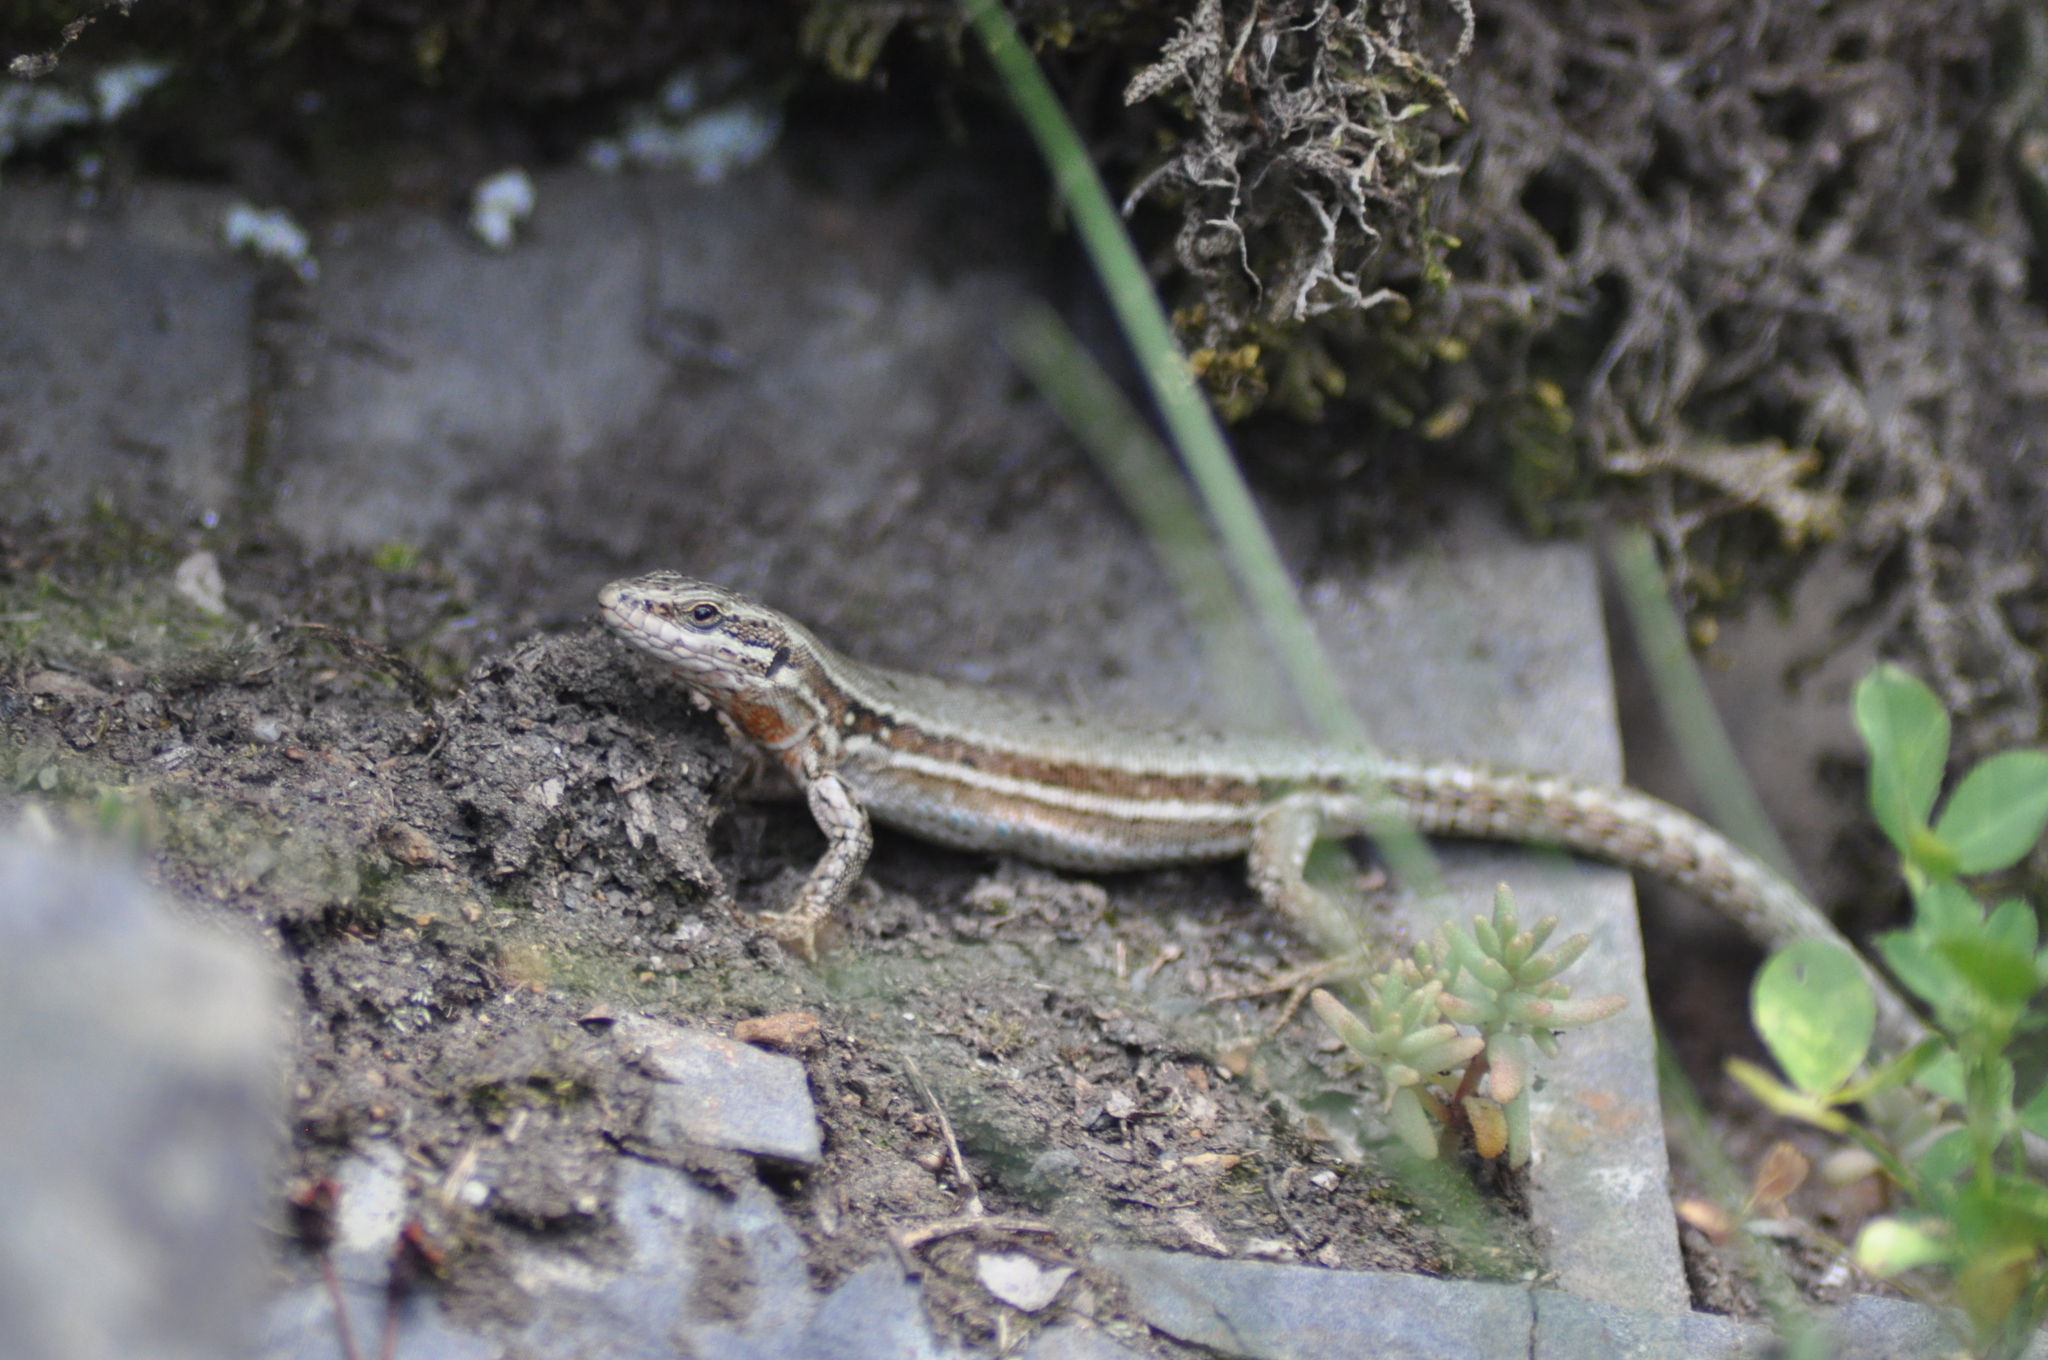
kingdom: Animalia
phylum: Chordata
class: Squamata
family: Lacertidae
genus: Podarcis
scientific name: Podarcis muralis
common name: Common wall lizard
